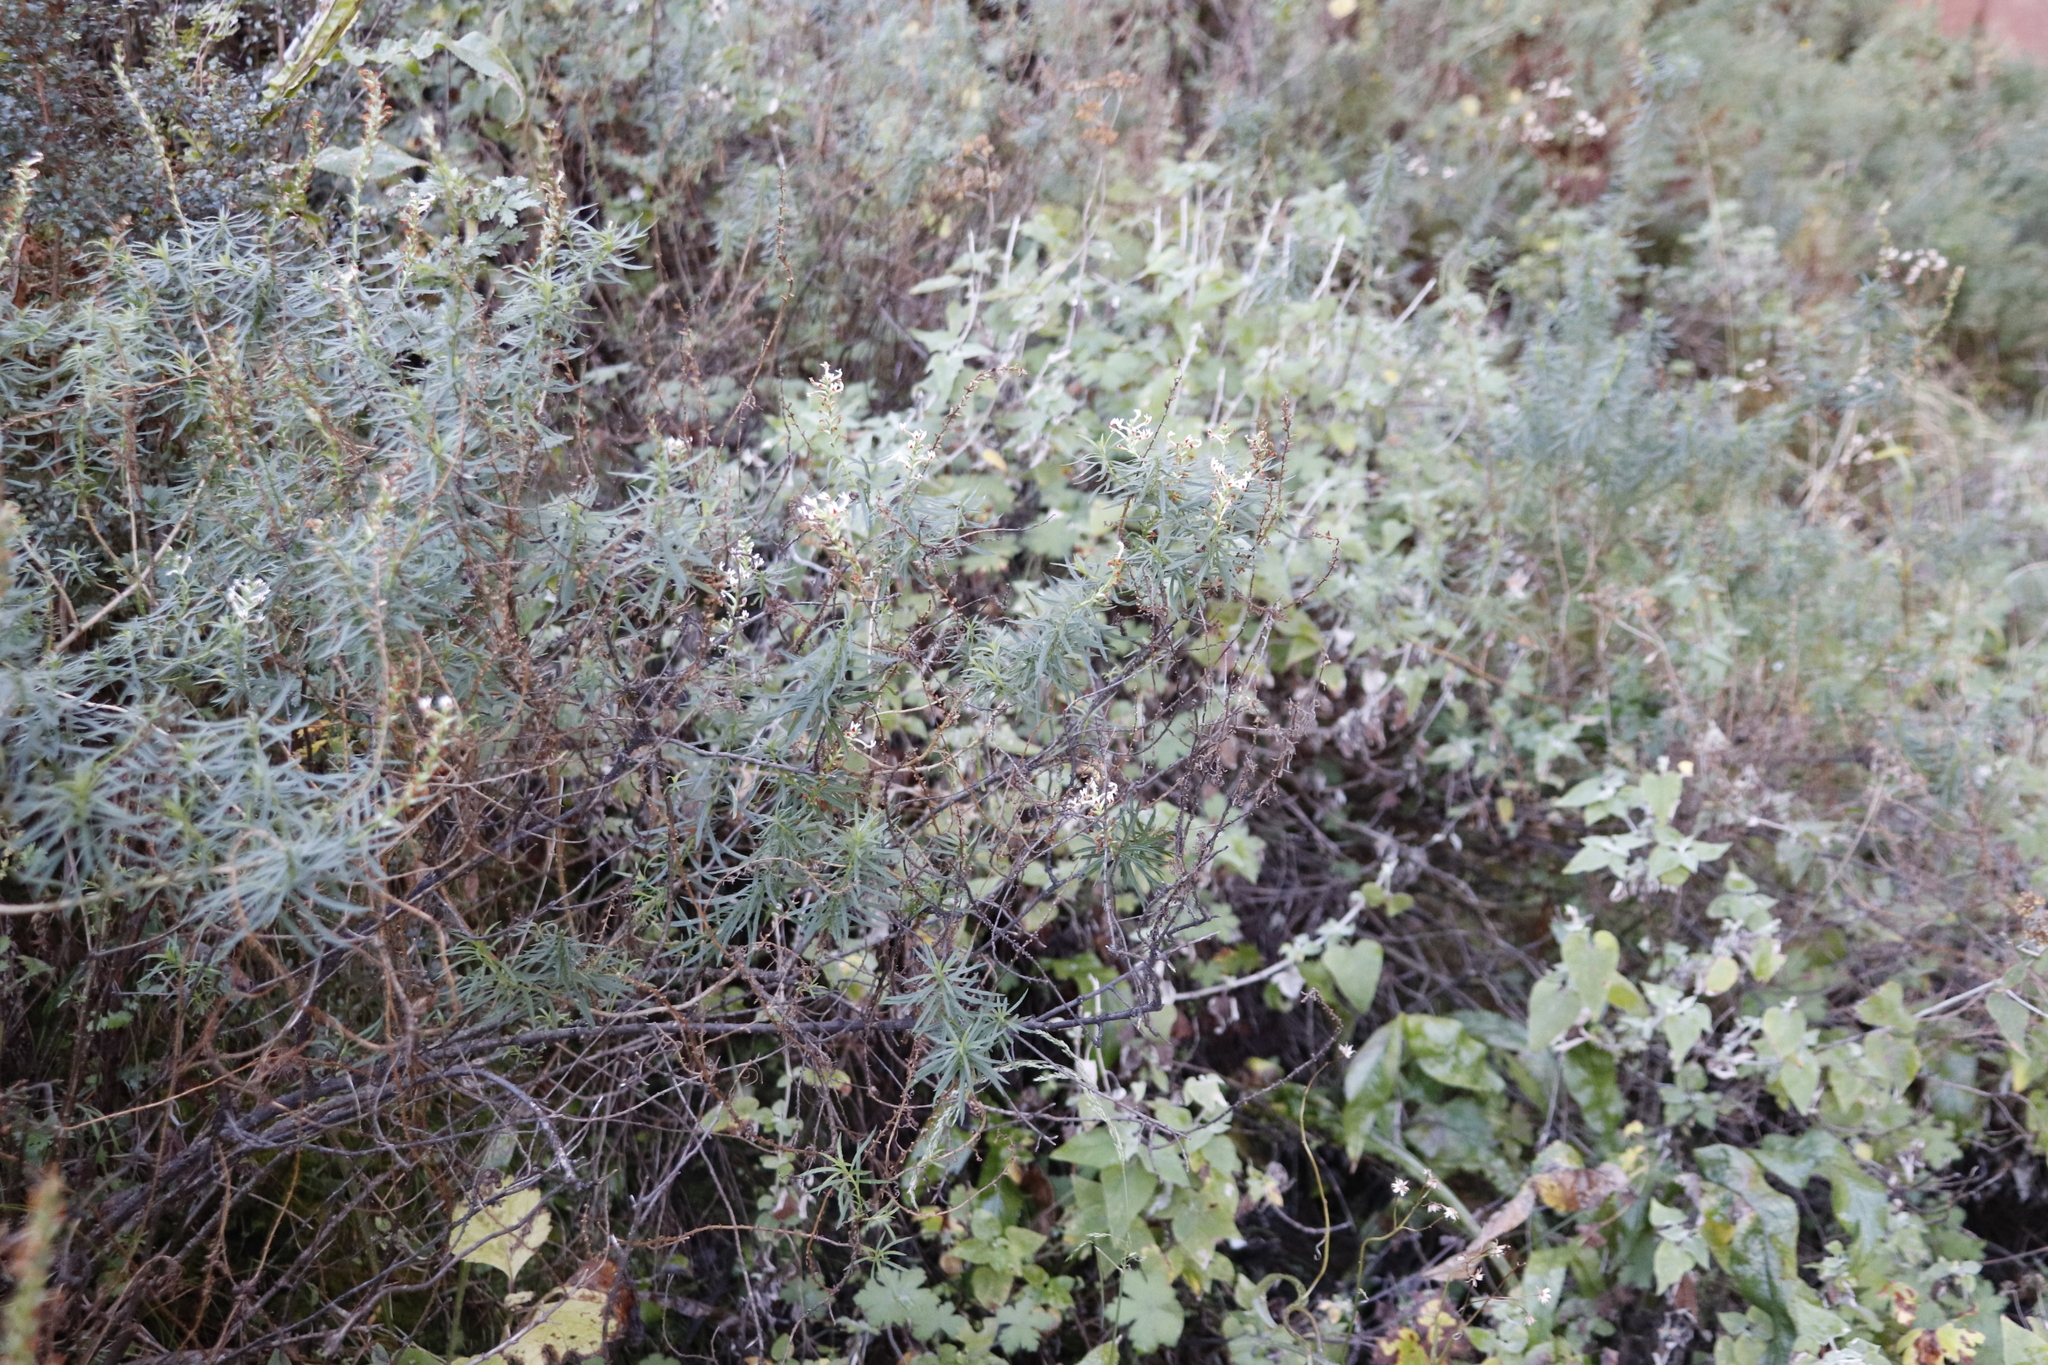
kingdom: Plantae
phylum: Tracheophyta
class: Magnoliopsida
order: Lamiales
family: Scrophulariaceae
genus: Hebenstretia
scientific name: Hebenstretia dura
